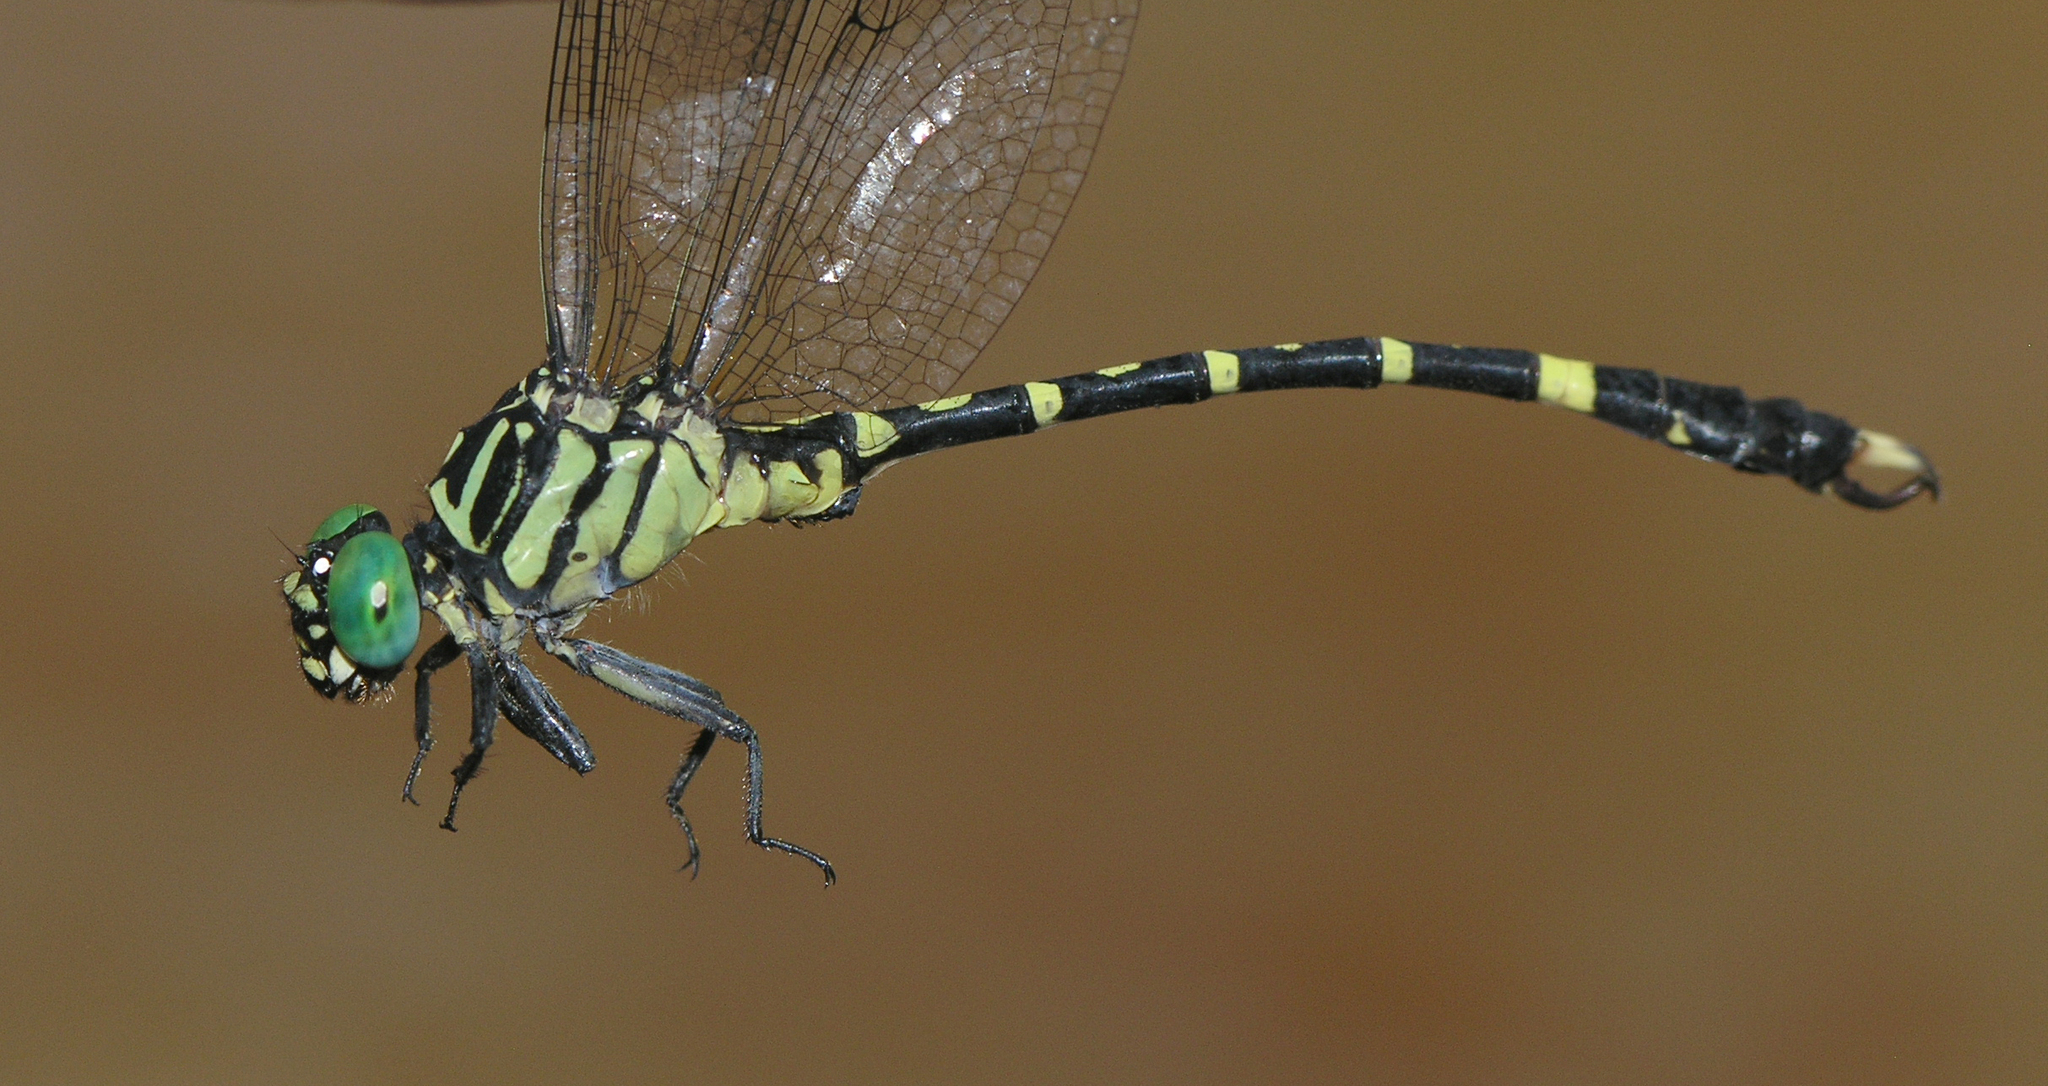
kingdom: Animalia
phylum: Arthropoda
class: Insecta
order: Odonata
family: Gomphidae
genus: Nychogomphus
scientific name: Nychogomphus duaricus
